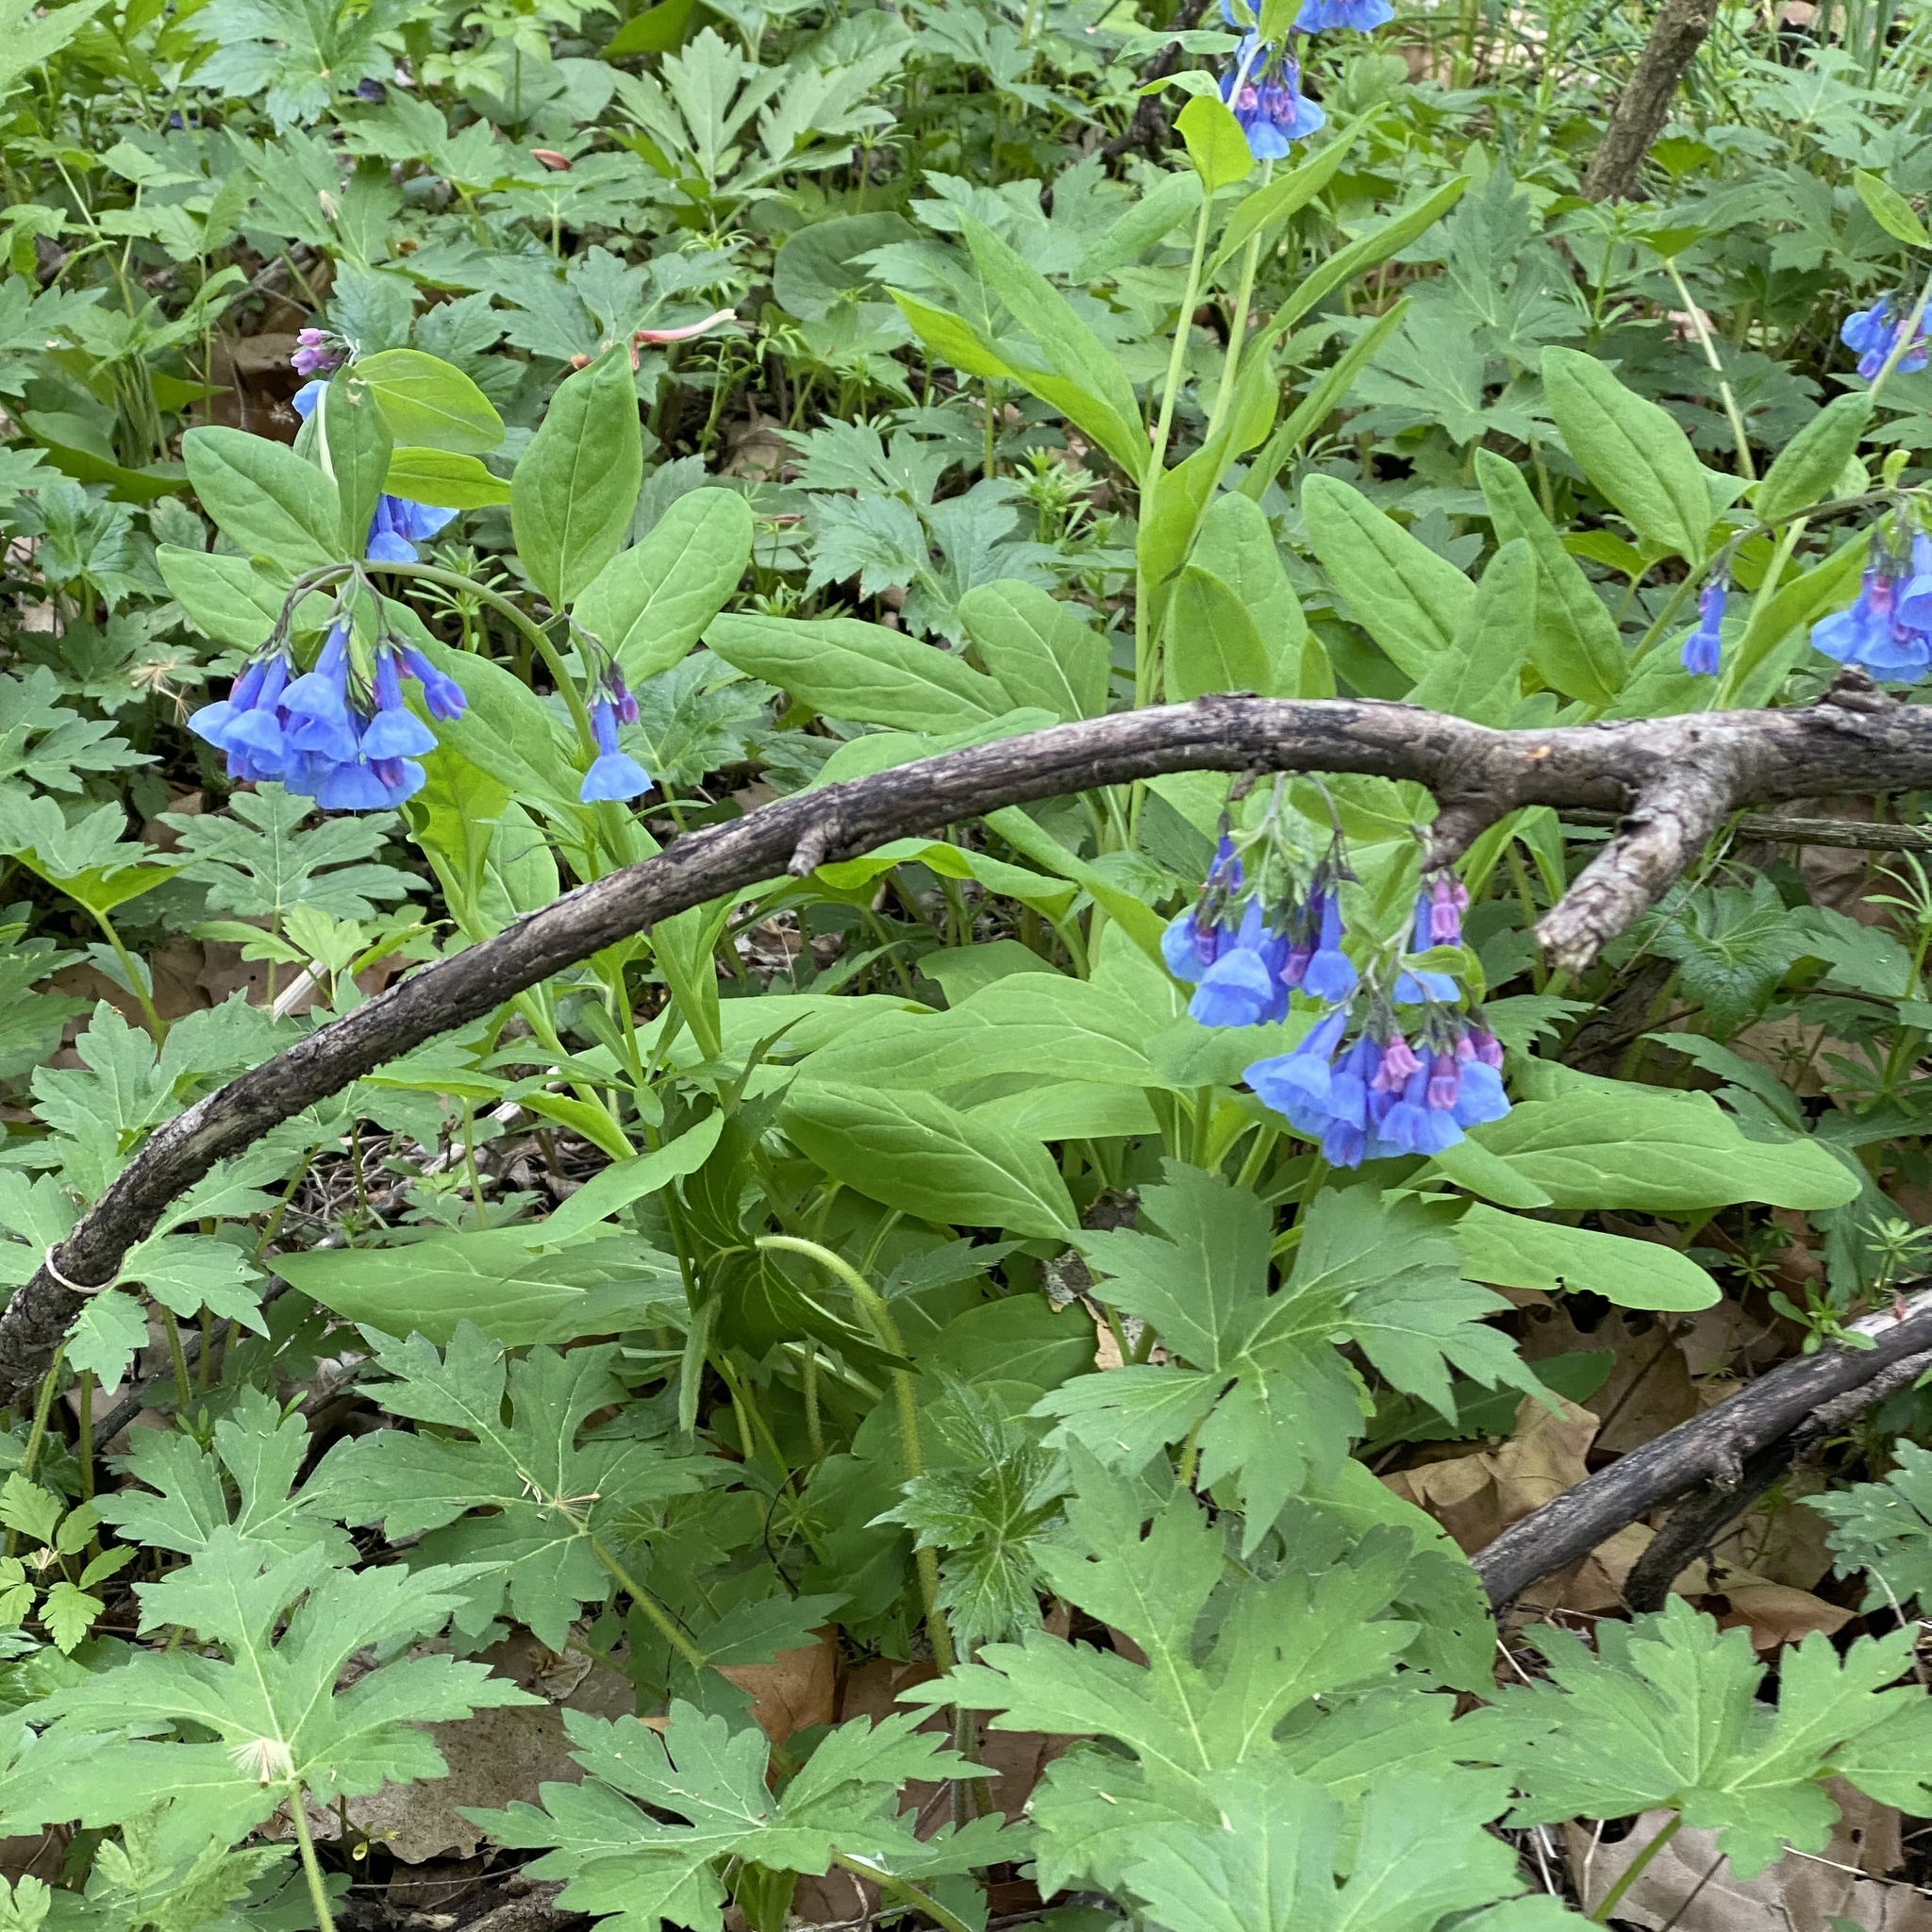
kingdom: Plantae
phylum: Tracheophyta
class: Magnoliopsida
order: Boraginales
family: Boraginaceae
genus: Mertensia
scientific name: Mertensia virginica
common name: Virginia bluebells
